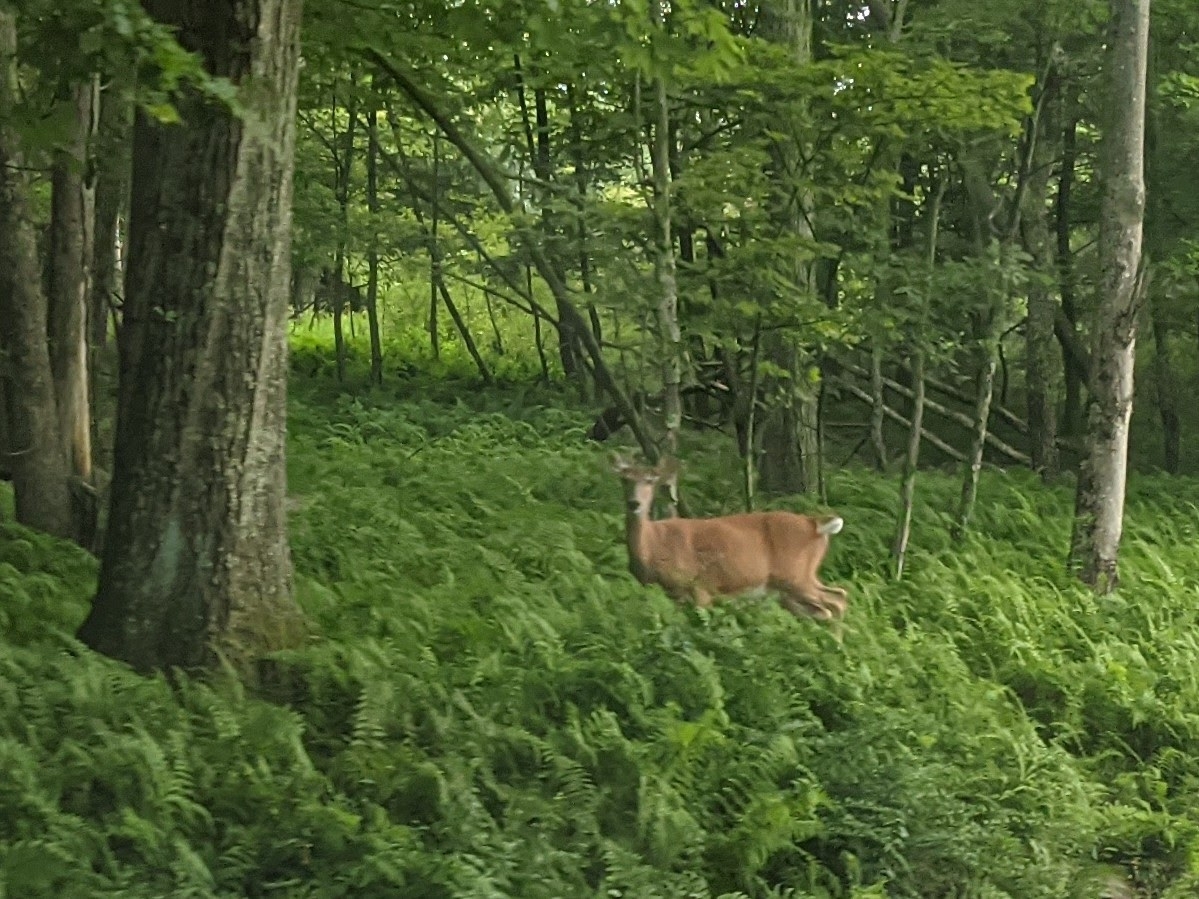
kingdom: Animalia
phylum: Chordata
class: Mammalia
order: Artiodactyla
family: Cervidae
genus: Odocoileus
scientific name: Odocoileus virginianus
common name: White-tailed deer
